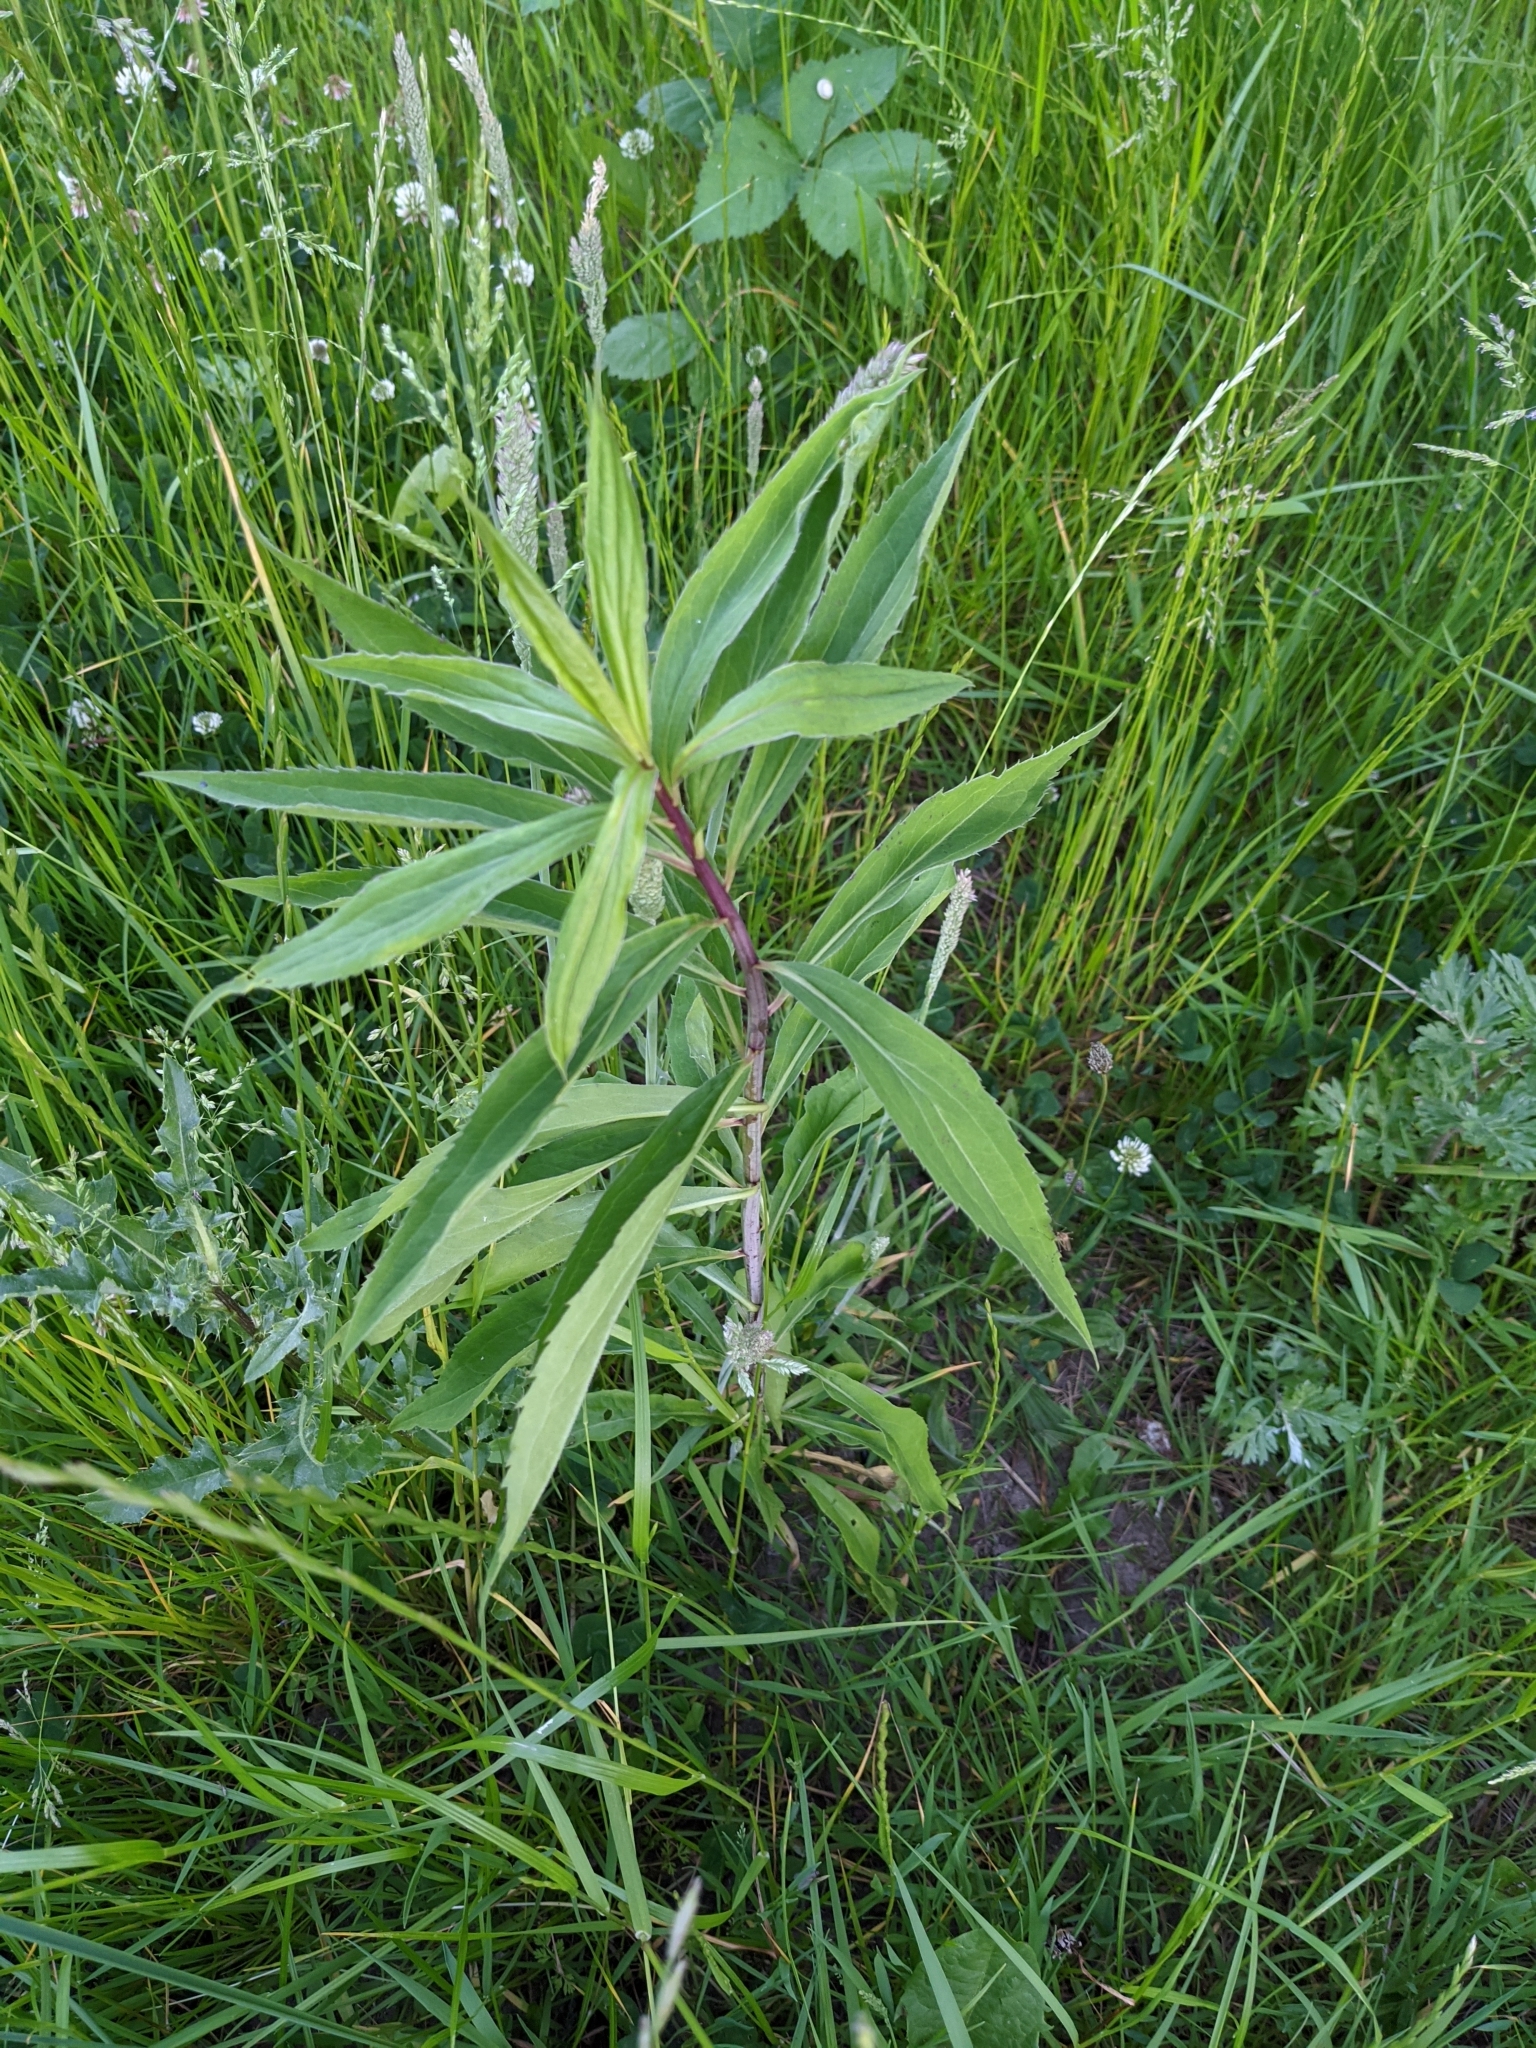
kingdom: Plantae
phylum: Tracheophyta
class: Magnoliopsida
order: Asterales
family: Asteraceae
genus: Solidago
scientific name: Solidago gigantea
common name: Giant goldenrod
